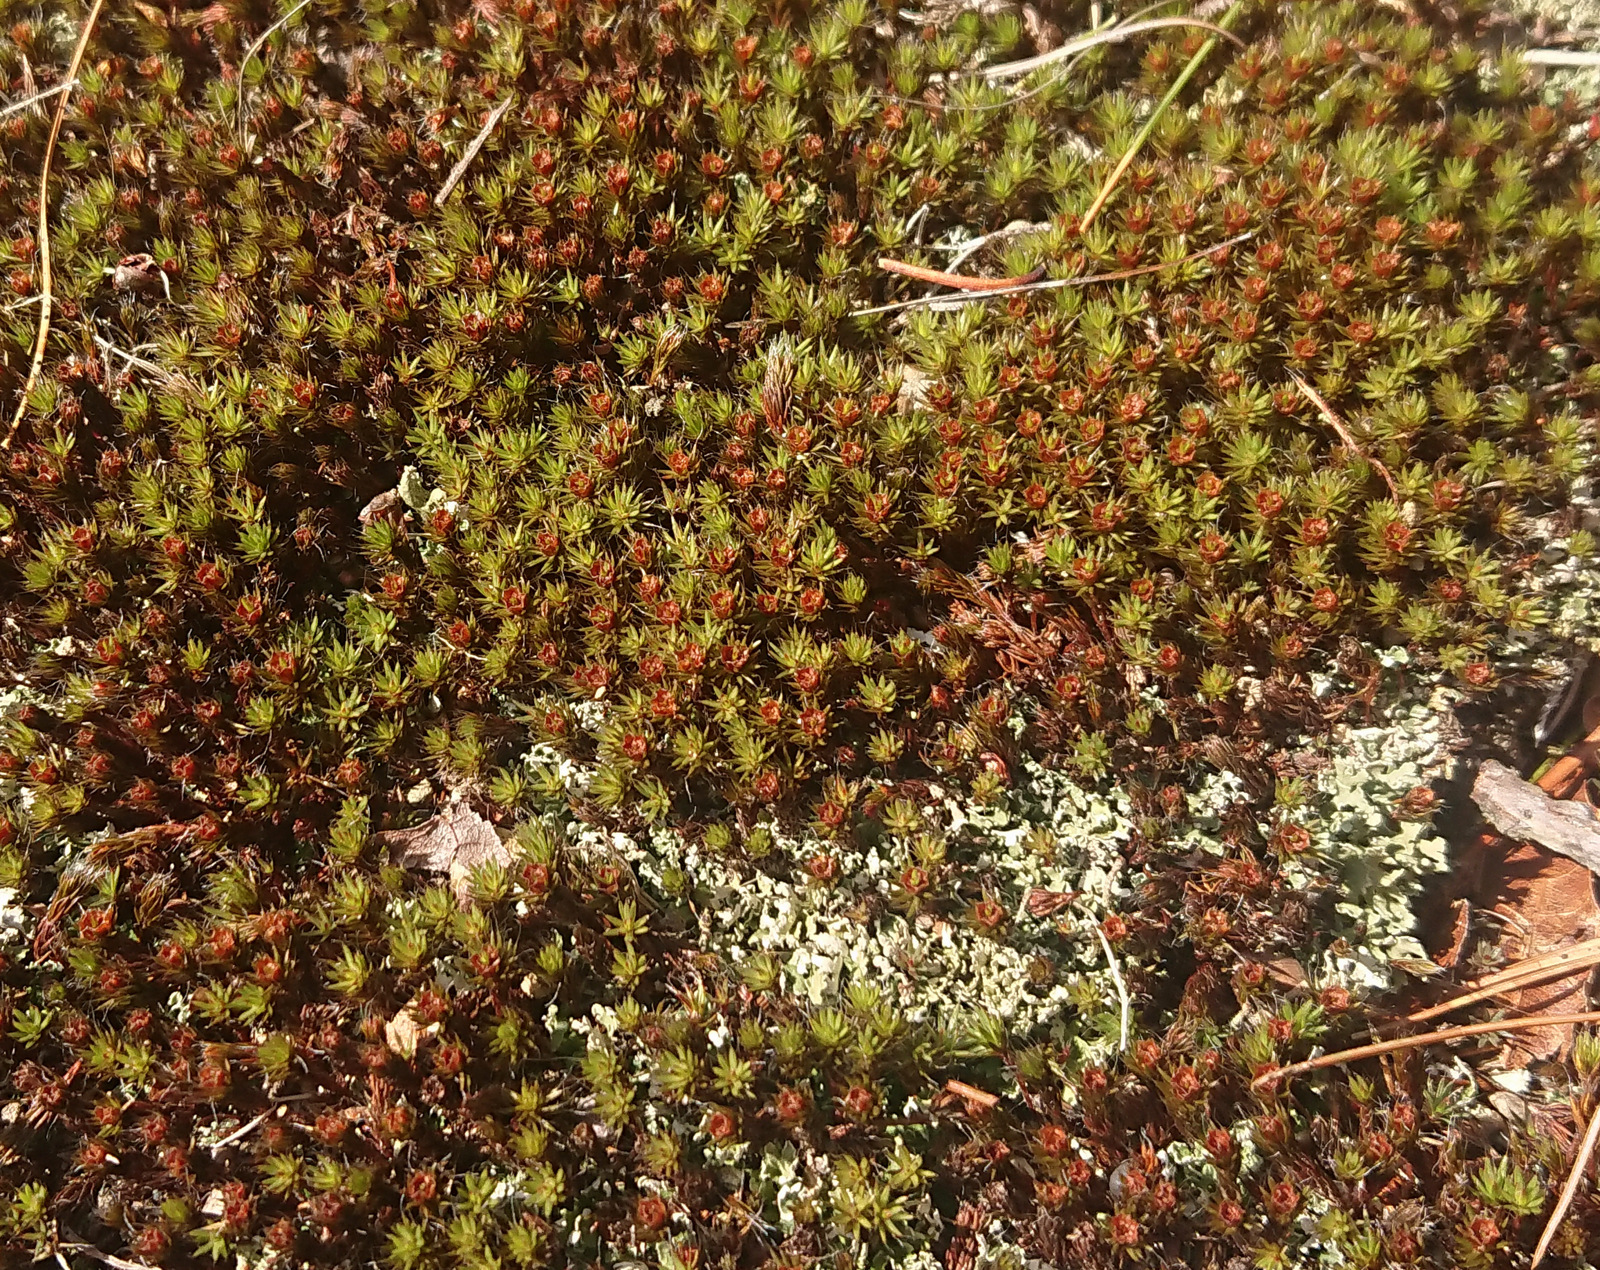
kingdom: Plantae
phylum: Bryophyta
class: Polytrichopsida
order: Polytrichales
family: Polytrichaceae
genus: Polytrichum
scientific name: Polytrichum piliferum
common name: Bristly haircap
